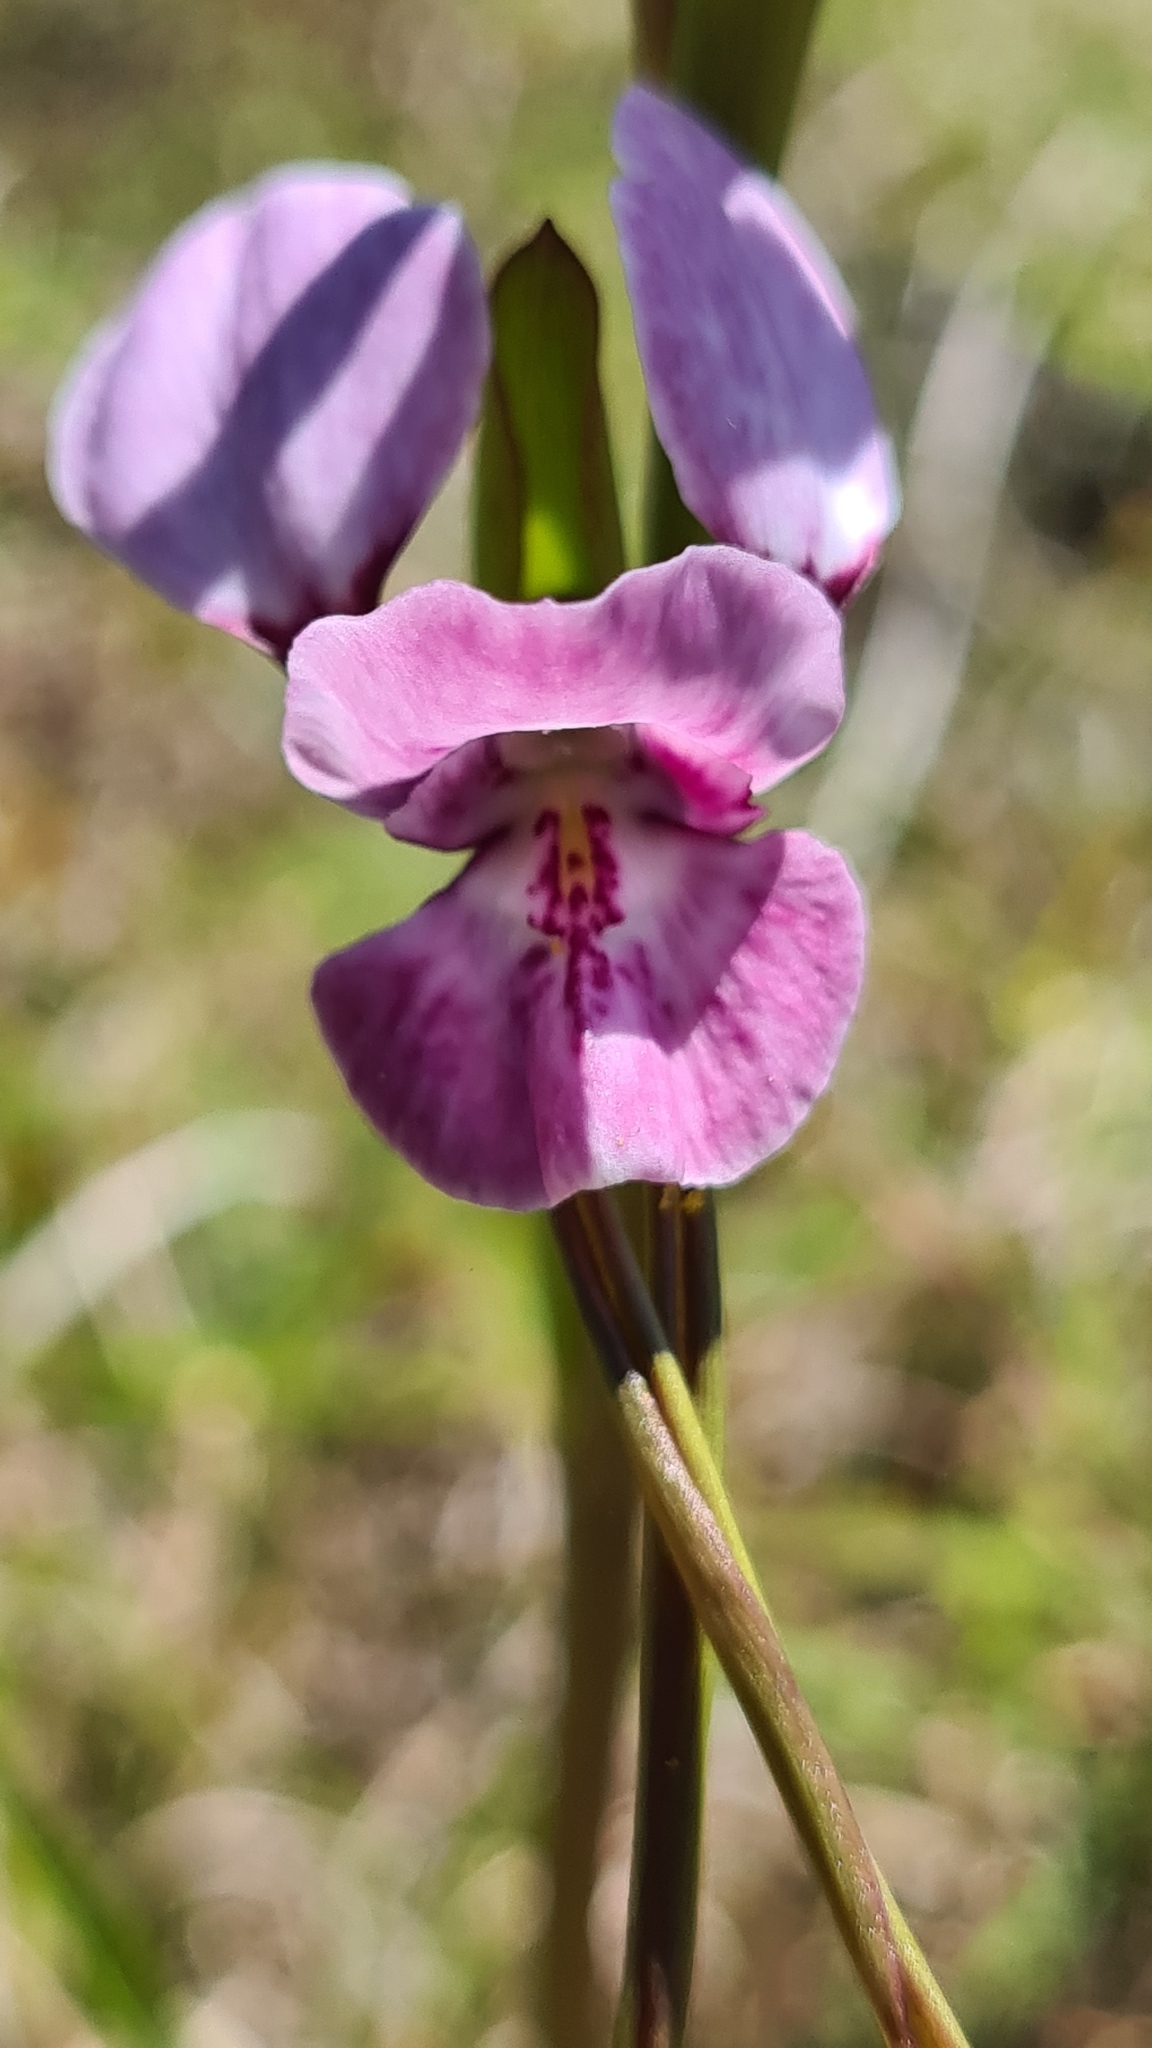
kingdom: Plantae
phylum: Tracheophyta
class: Liliopsida
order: Asparagales
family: Orchidaceae
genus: Diuris
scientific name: Diuris punctata
